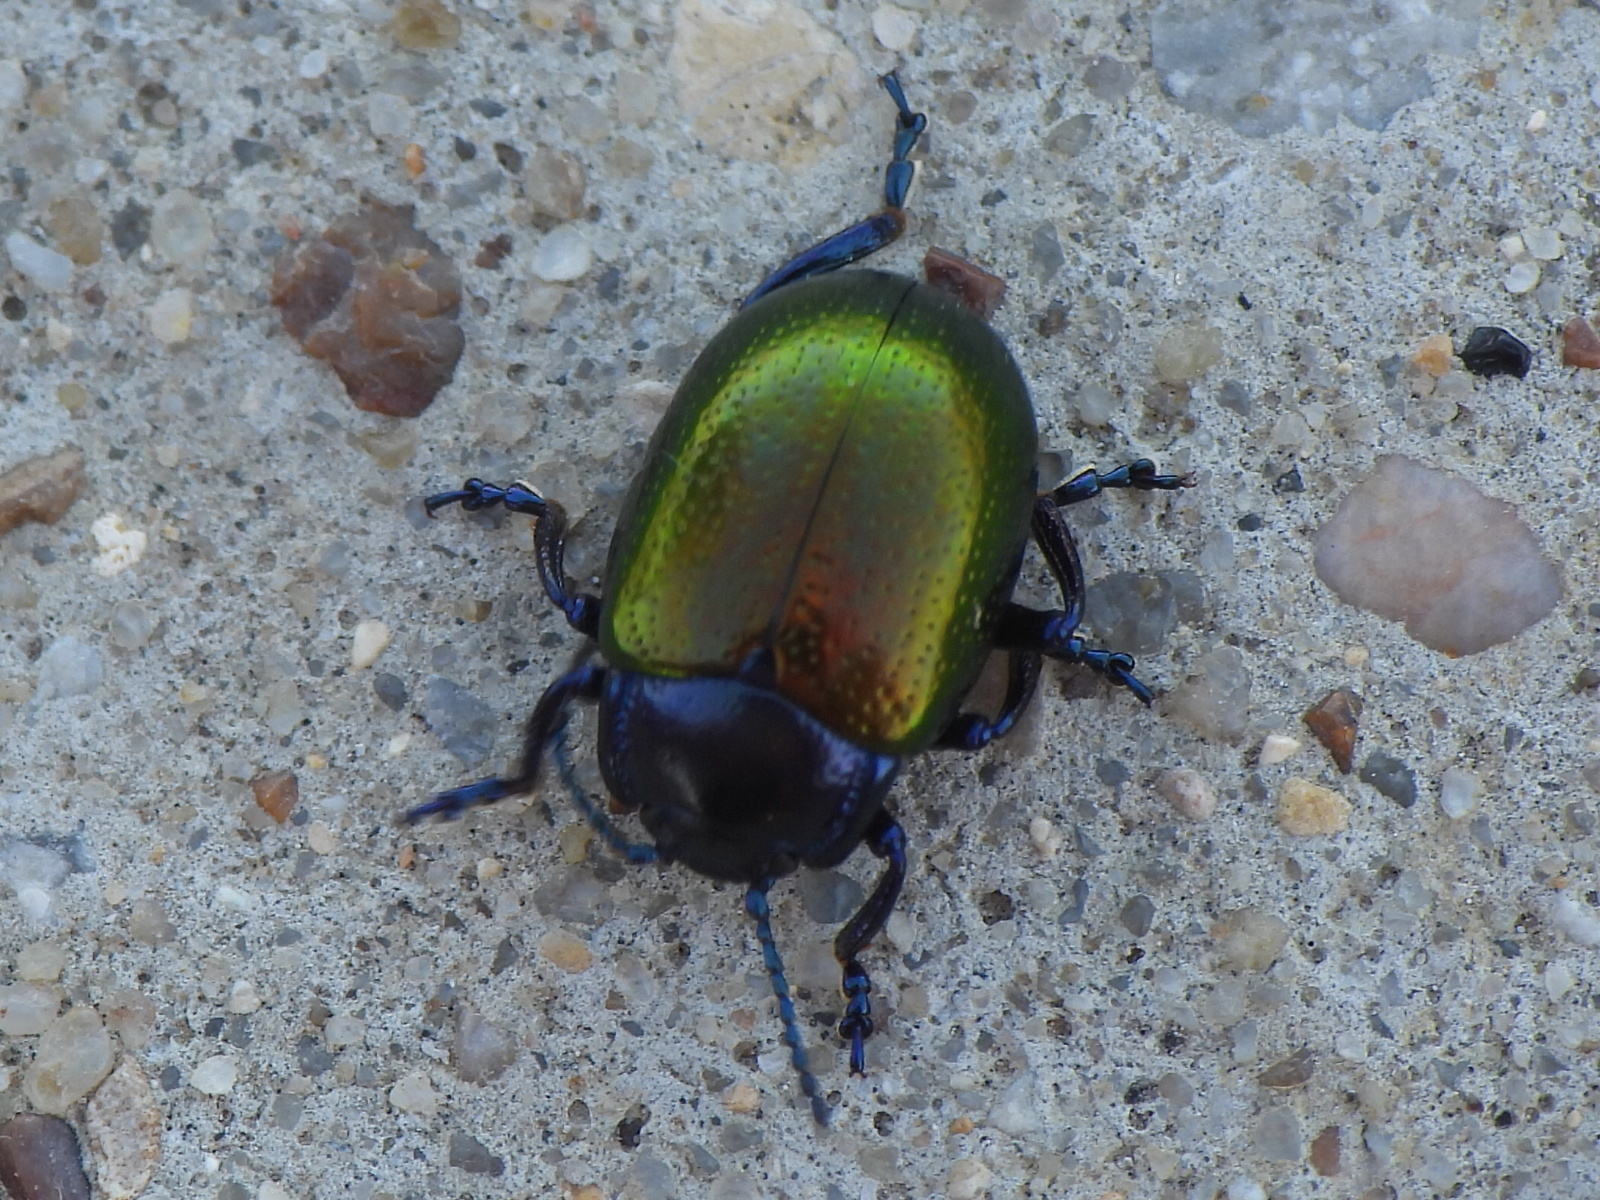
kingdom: Animalia
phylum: Arthropoda
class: Insecta
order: Coleoptera
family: Chrysomelidae
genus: Chrysolina
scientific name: Chrysolina auripennis
